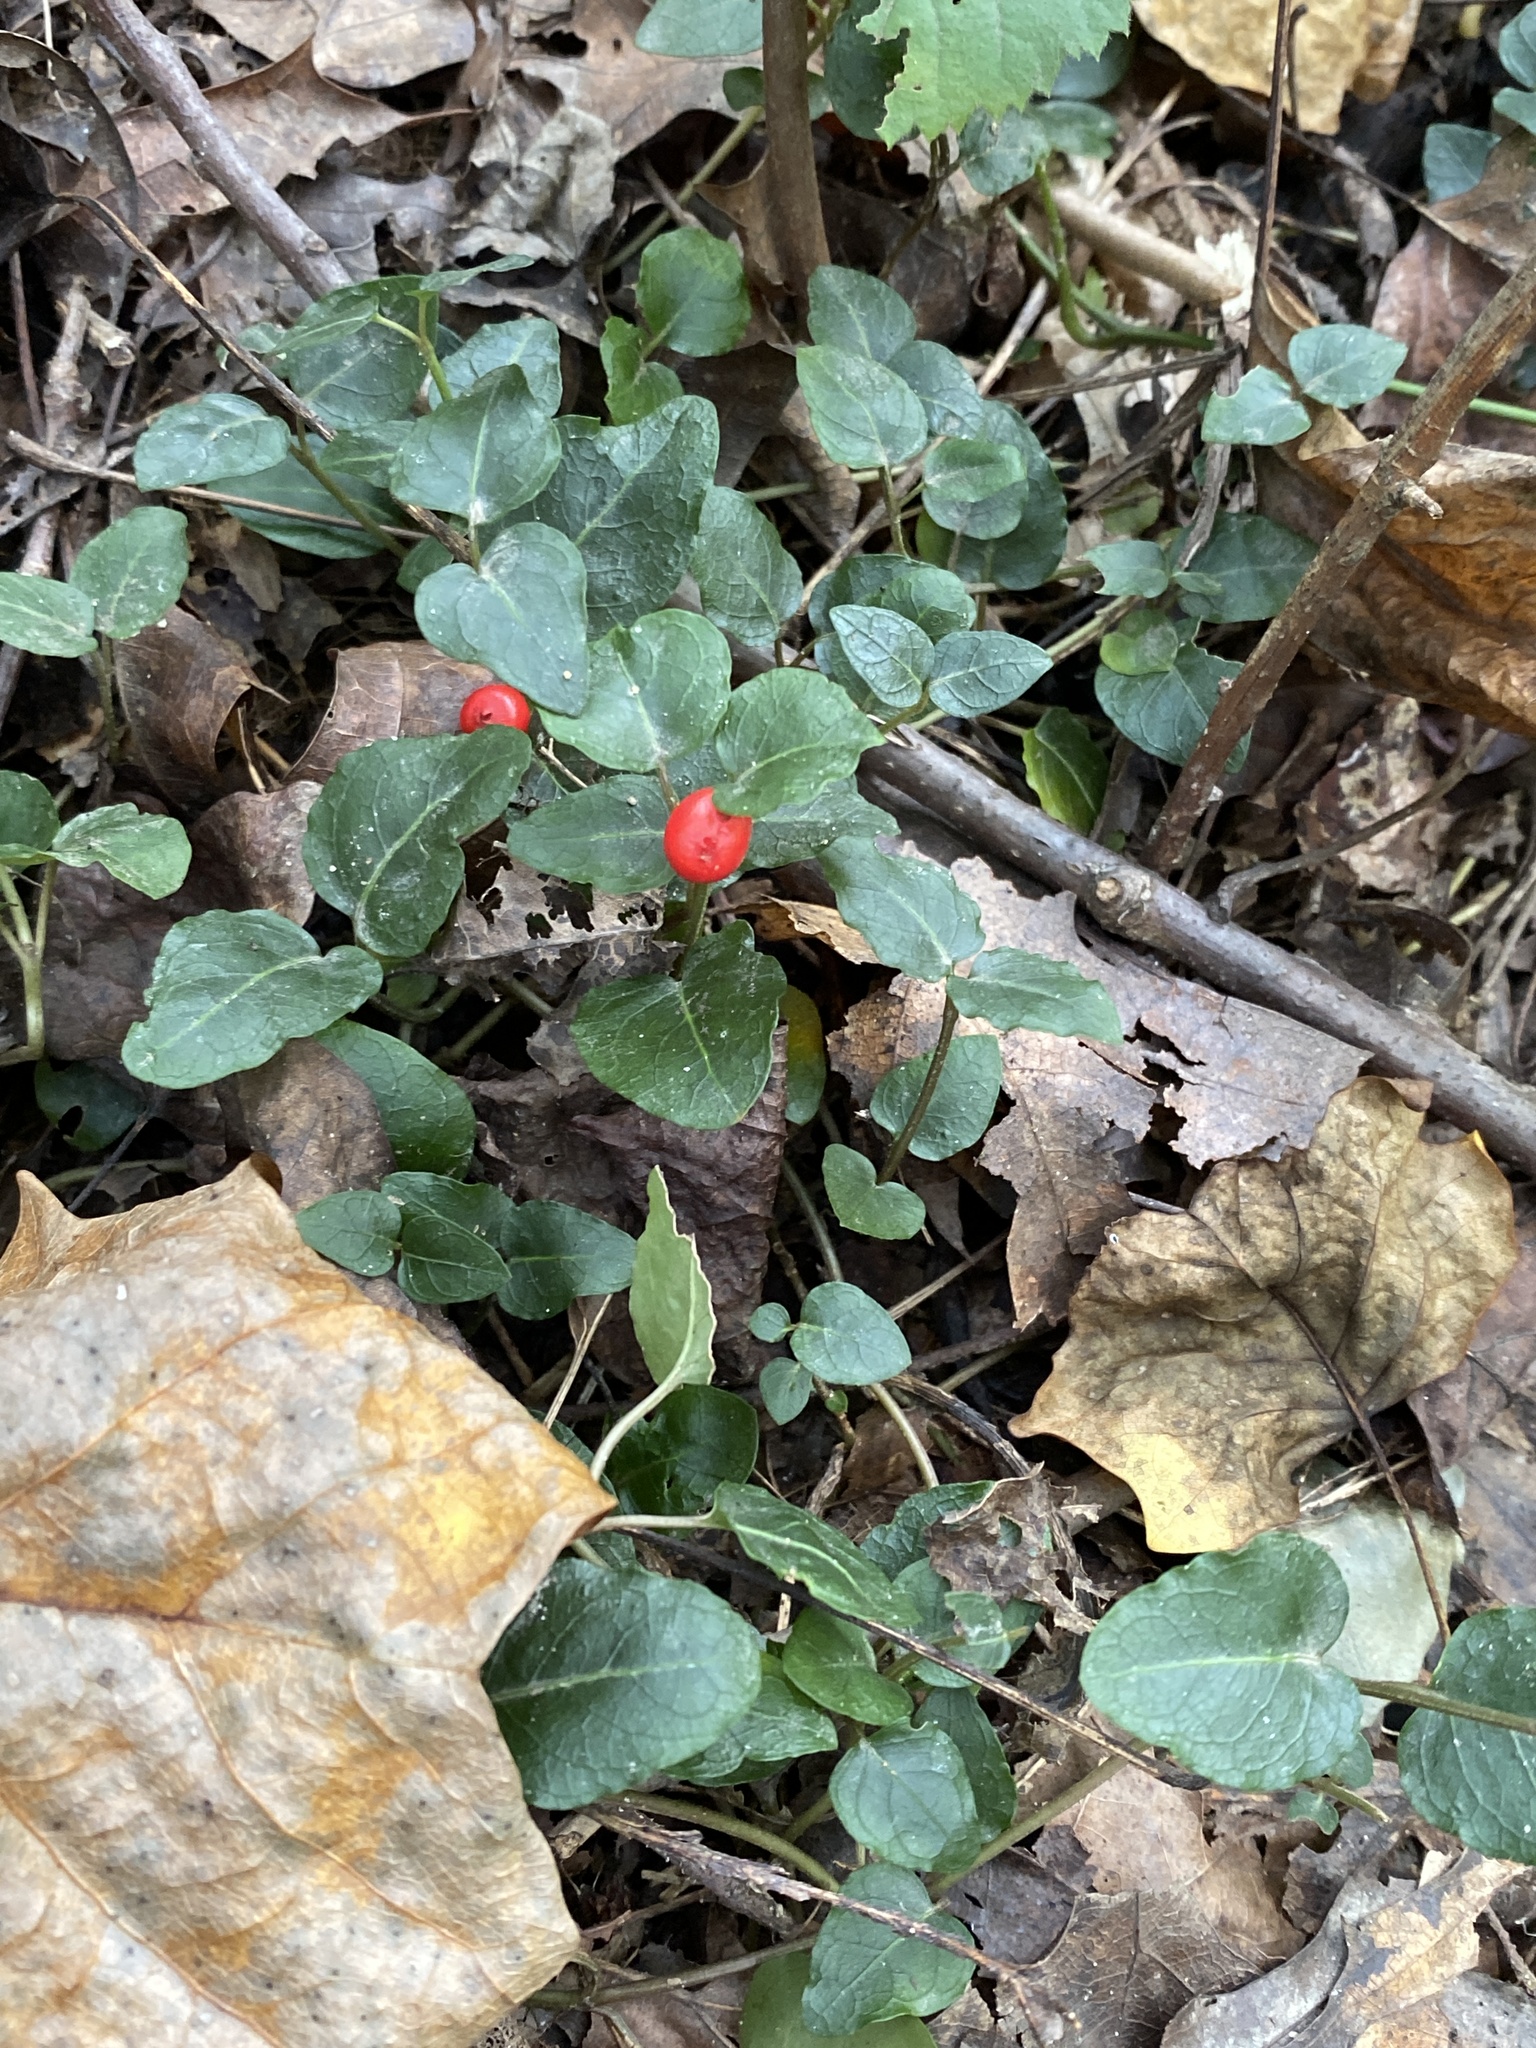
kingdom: Plantae
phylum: Tracheophyta
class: Magnoliopsida
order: Gentianales
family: Rubiaceae
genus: Mitchella
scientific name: Mitchella repens
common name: Partridge-berry
